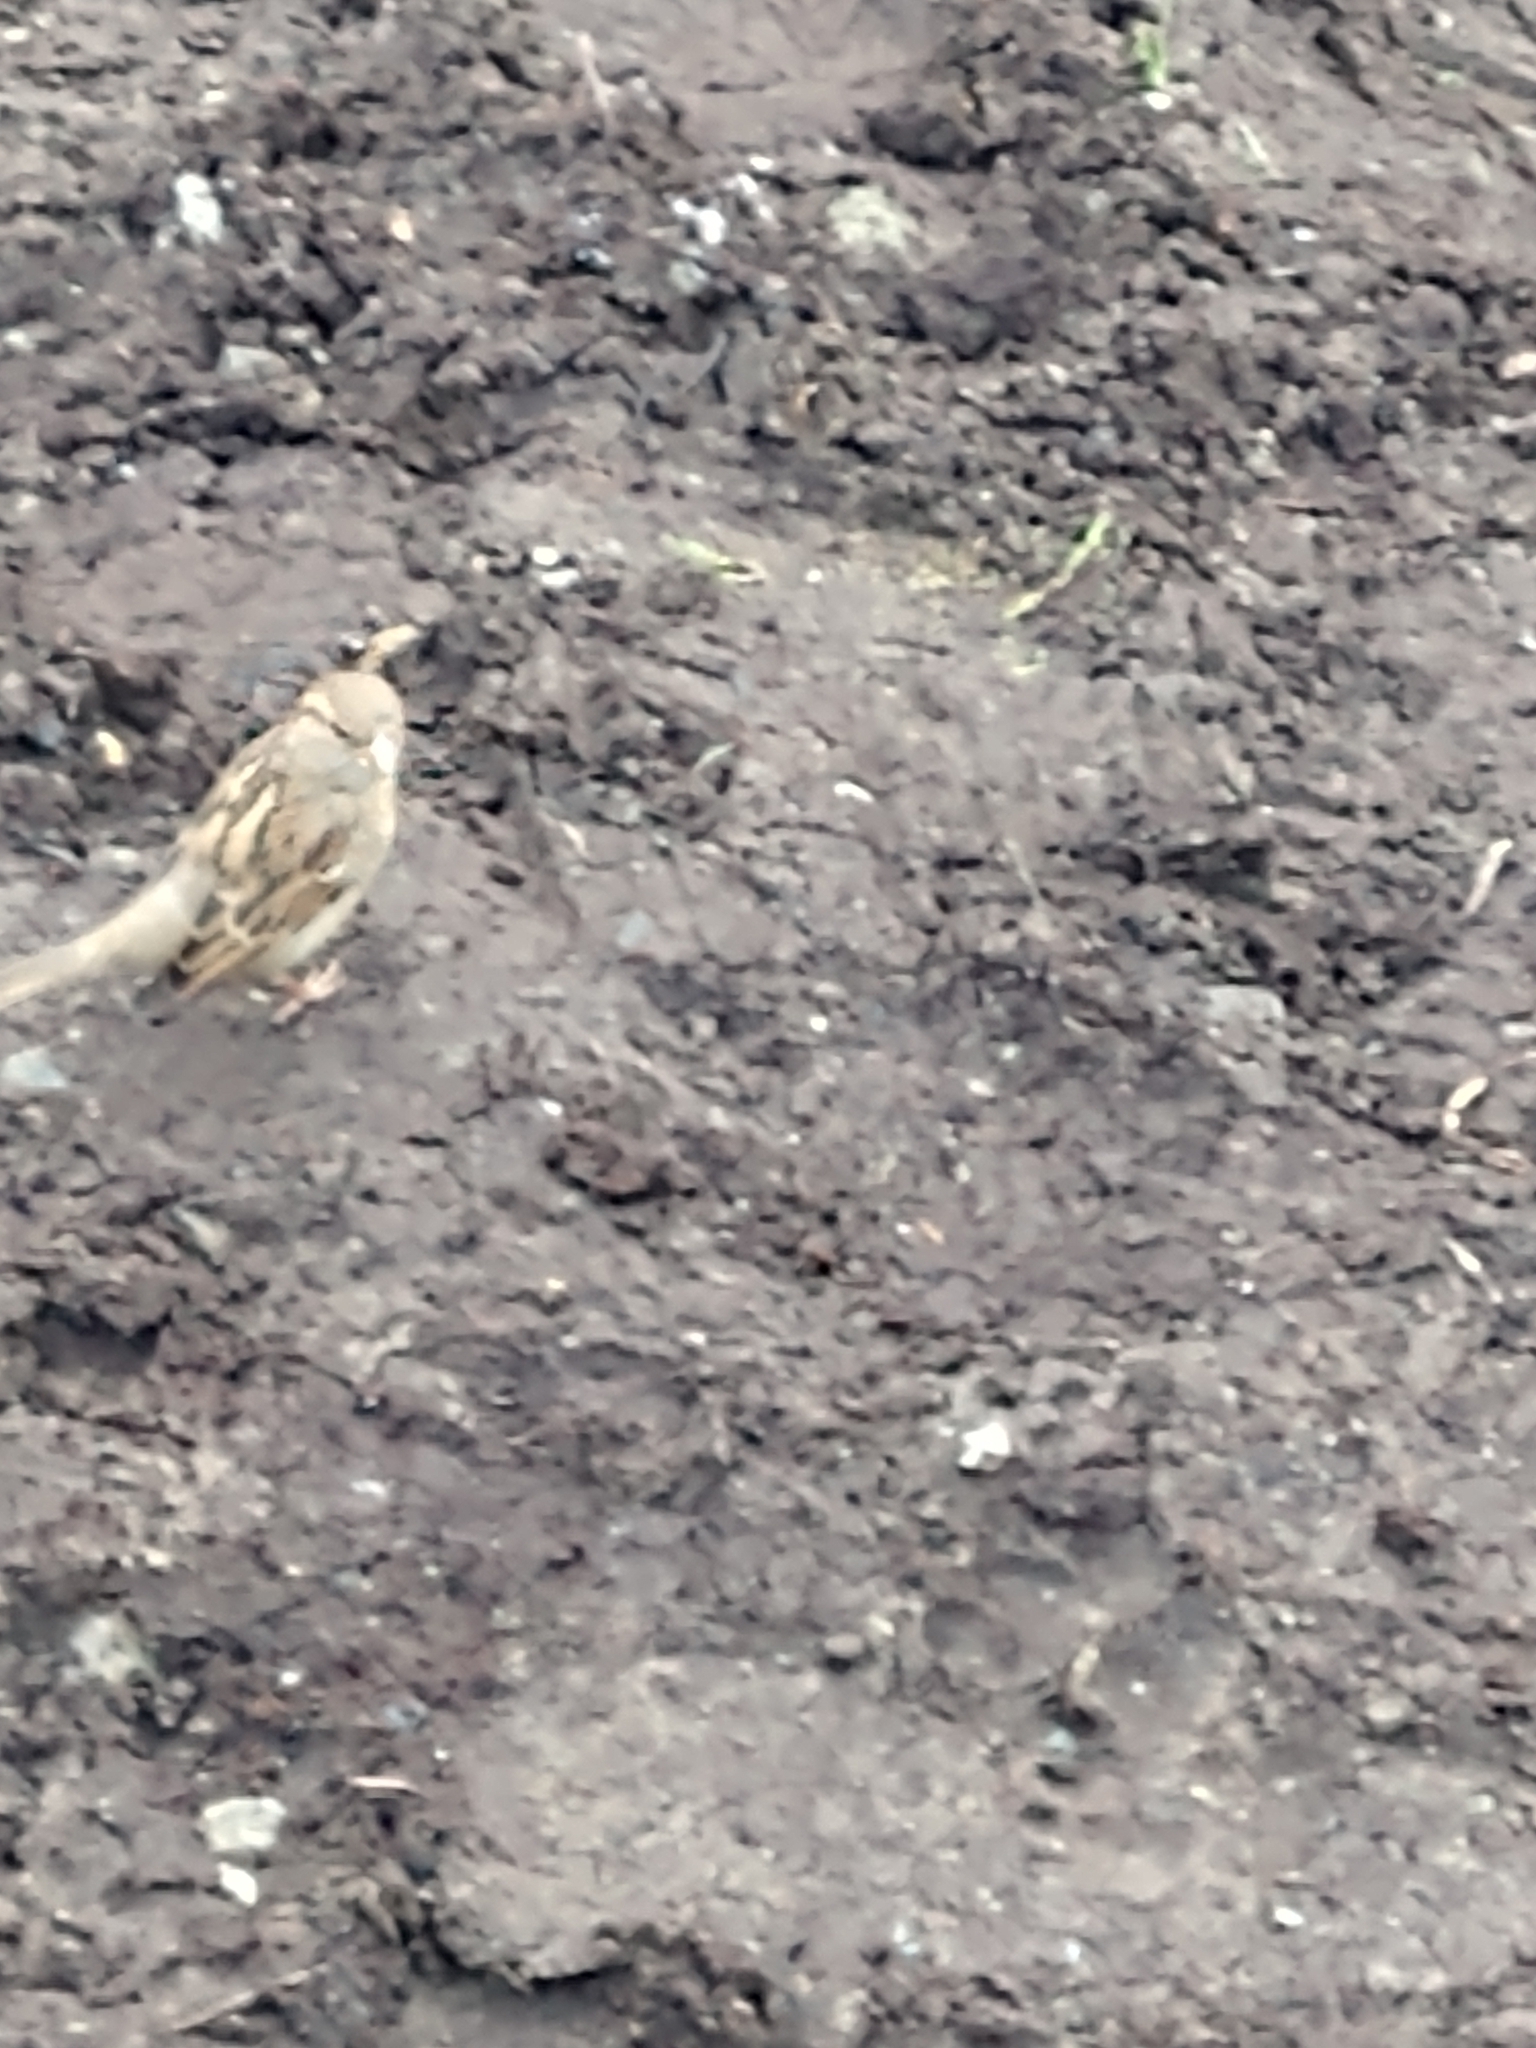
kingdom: Animalia
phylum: Chordata
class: Aves
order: Passeriformes
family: Passeridae
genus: Passer
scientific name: Passer domesticus
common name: House sparrow
